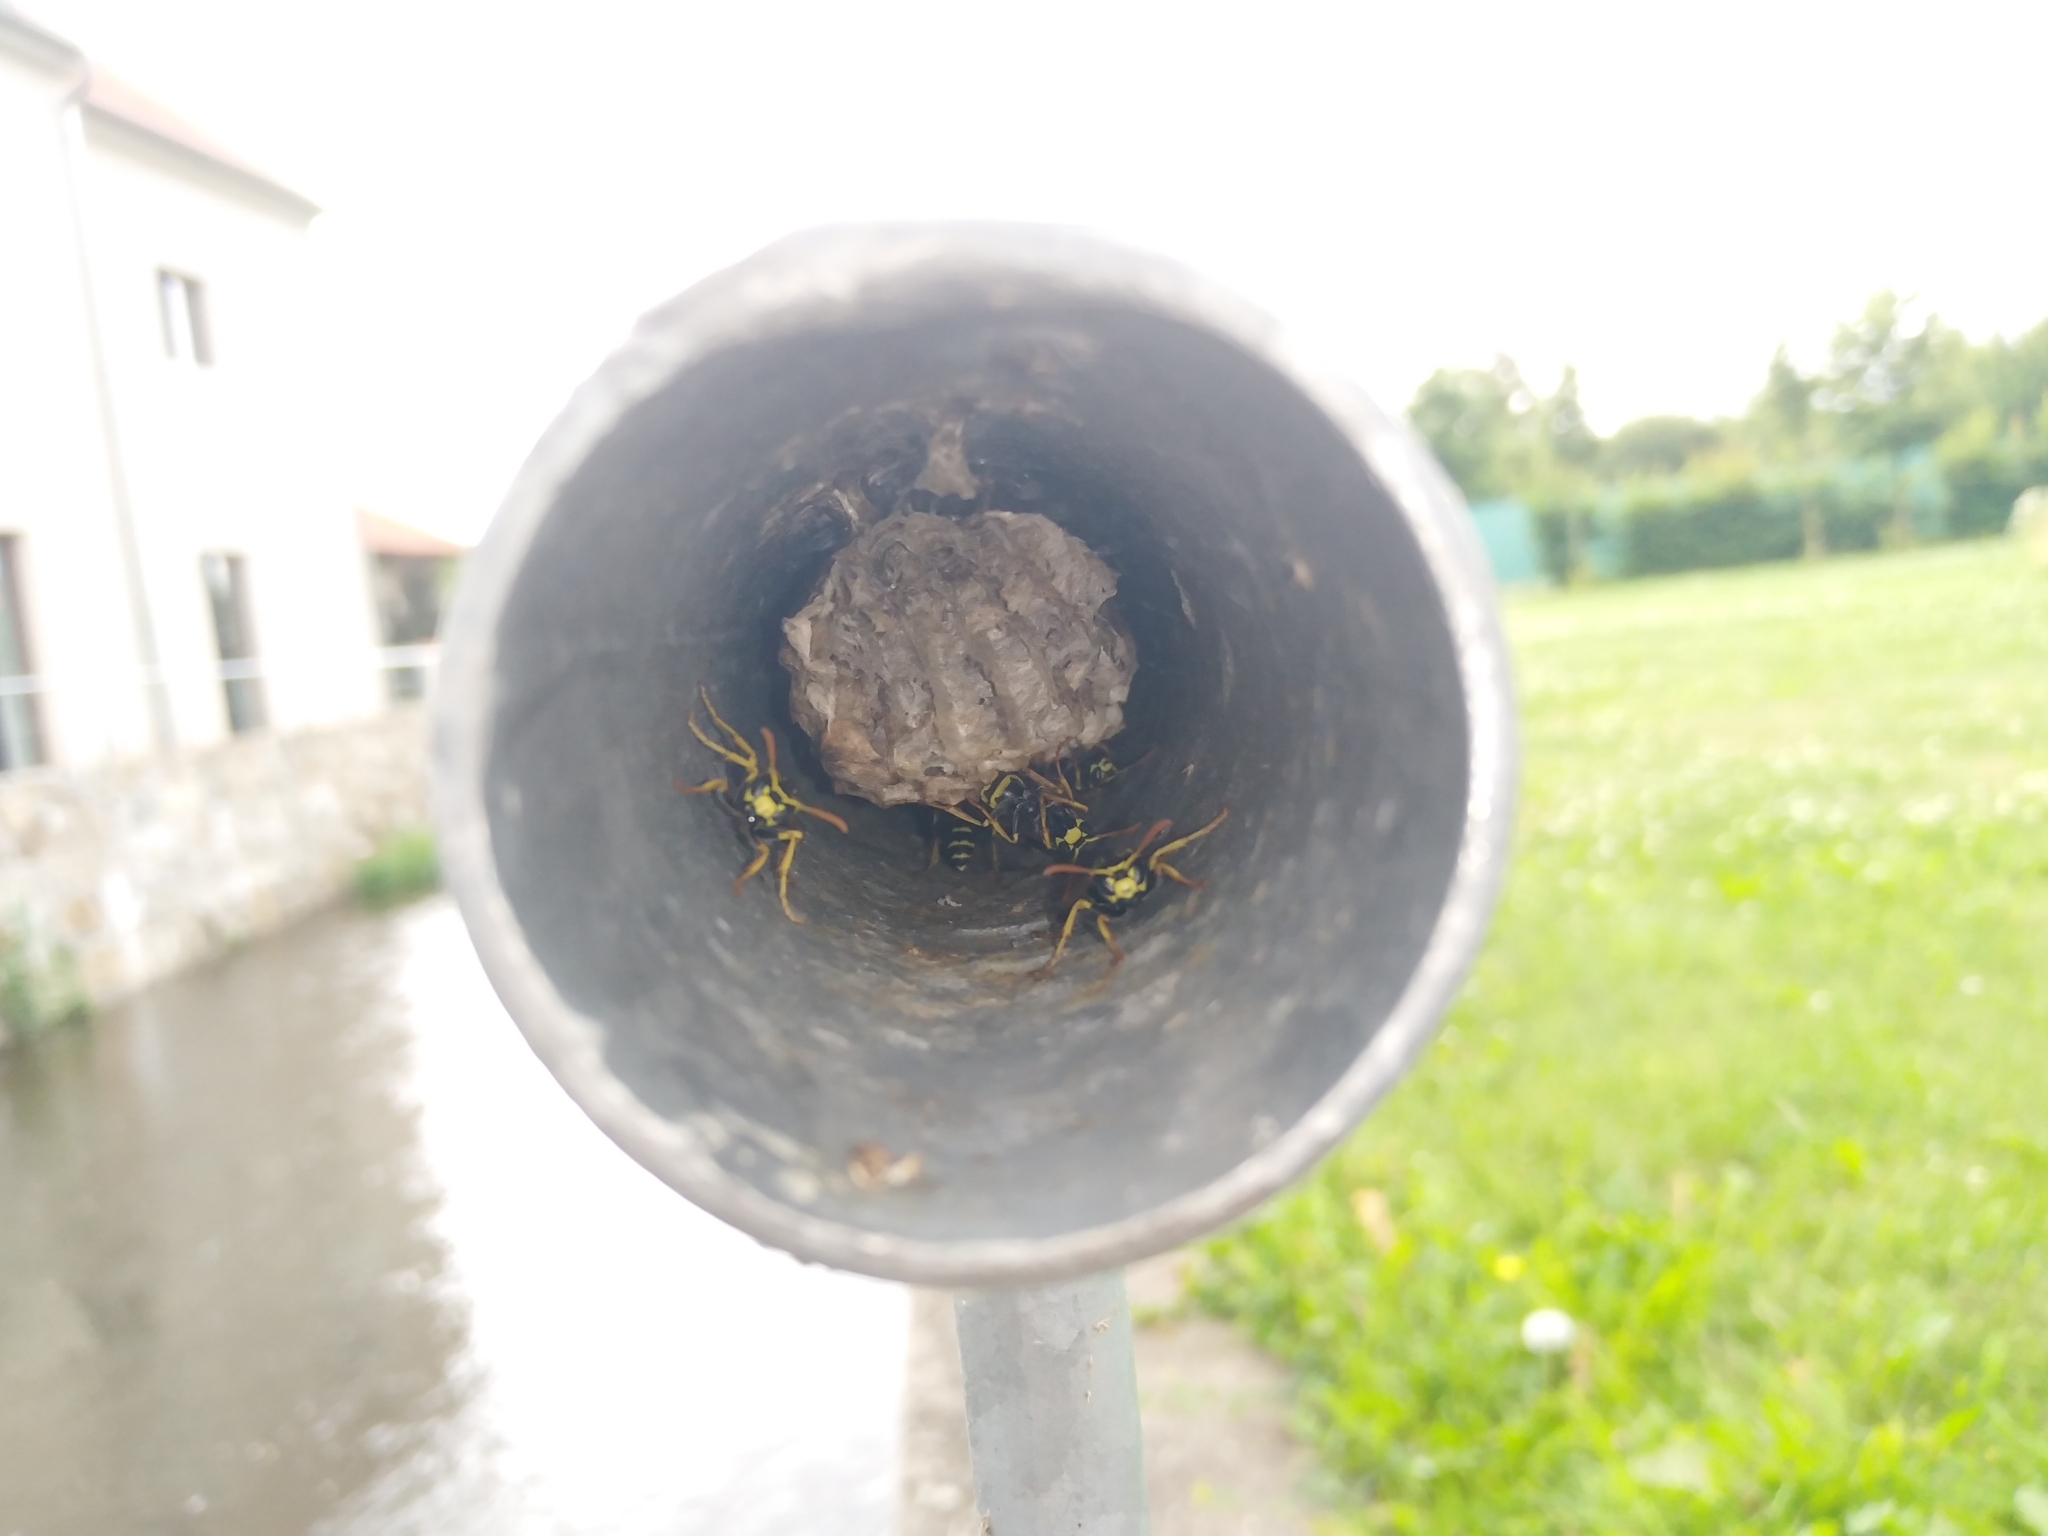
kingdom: Animalia
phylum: Arthropoda
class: Insecta
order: Hymenoptera
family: Eumenidae
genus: Polistes
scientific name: Polistes dominula
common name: Paper wasp
